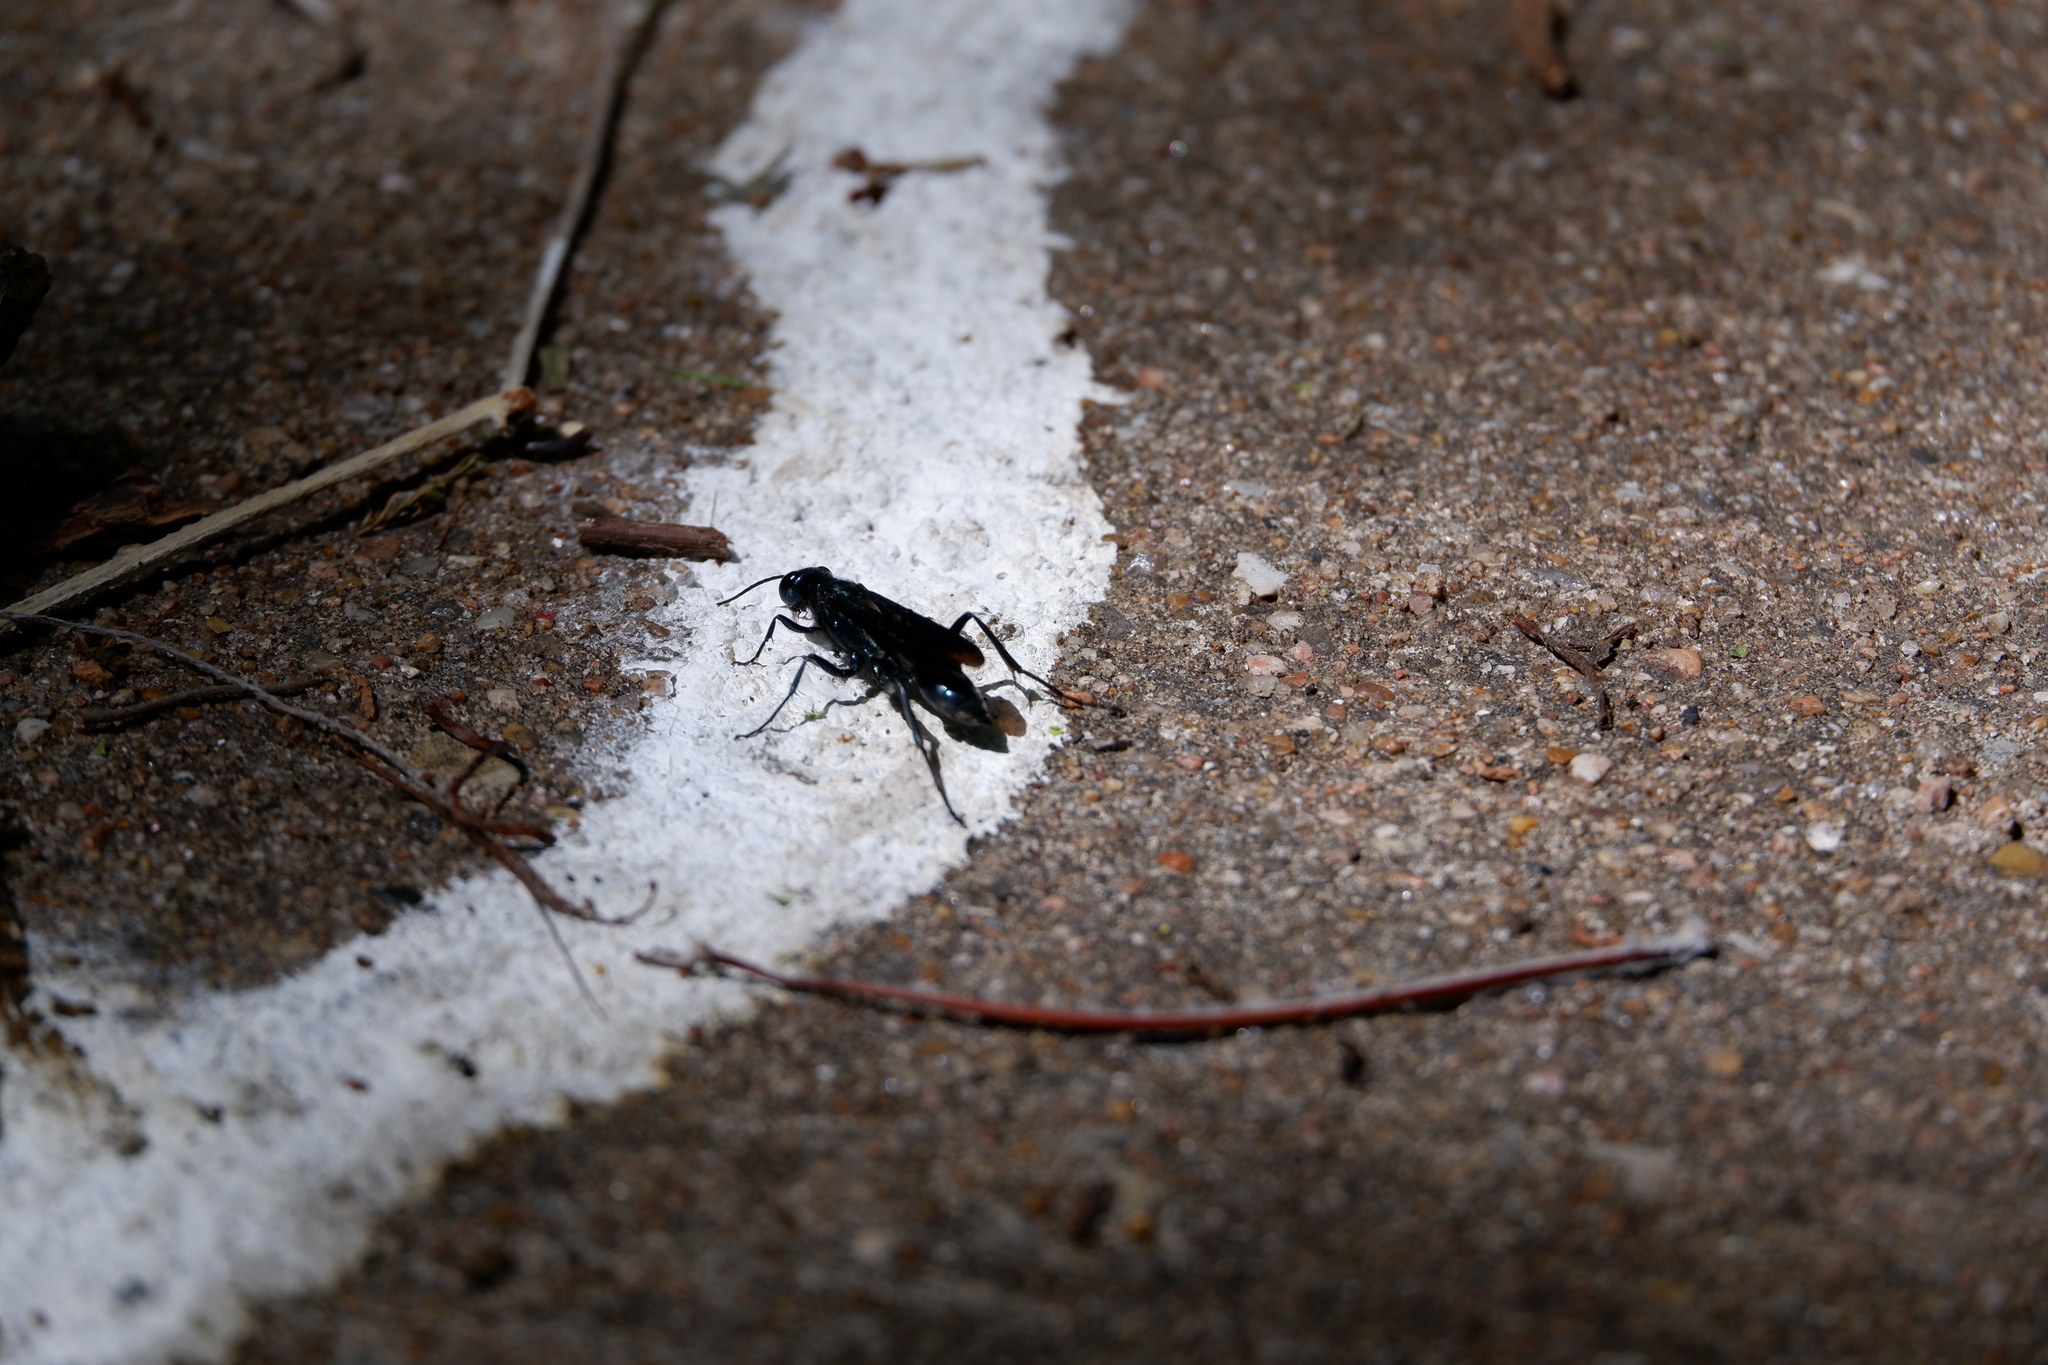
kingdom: Animalia
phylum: Arthropoda
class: Insecta
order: Hymenoptera
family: Sphecidae
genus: Chalybion
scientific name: Chalybion californicum
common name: Mud dauber
